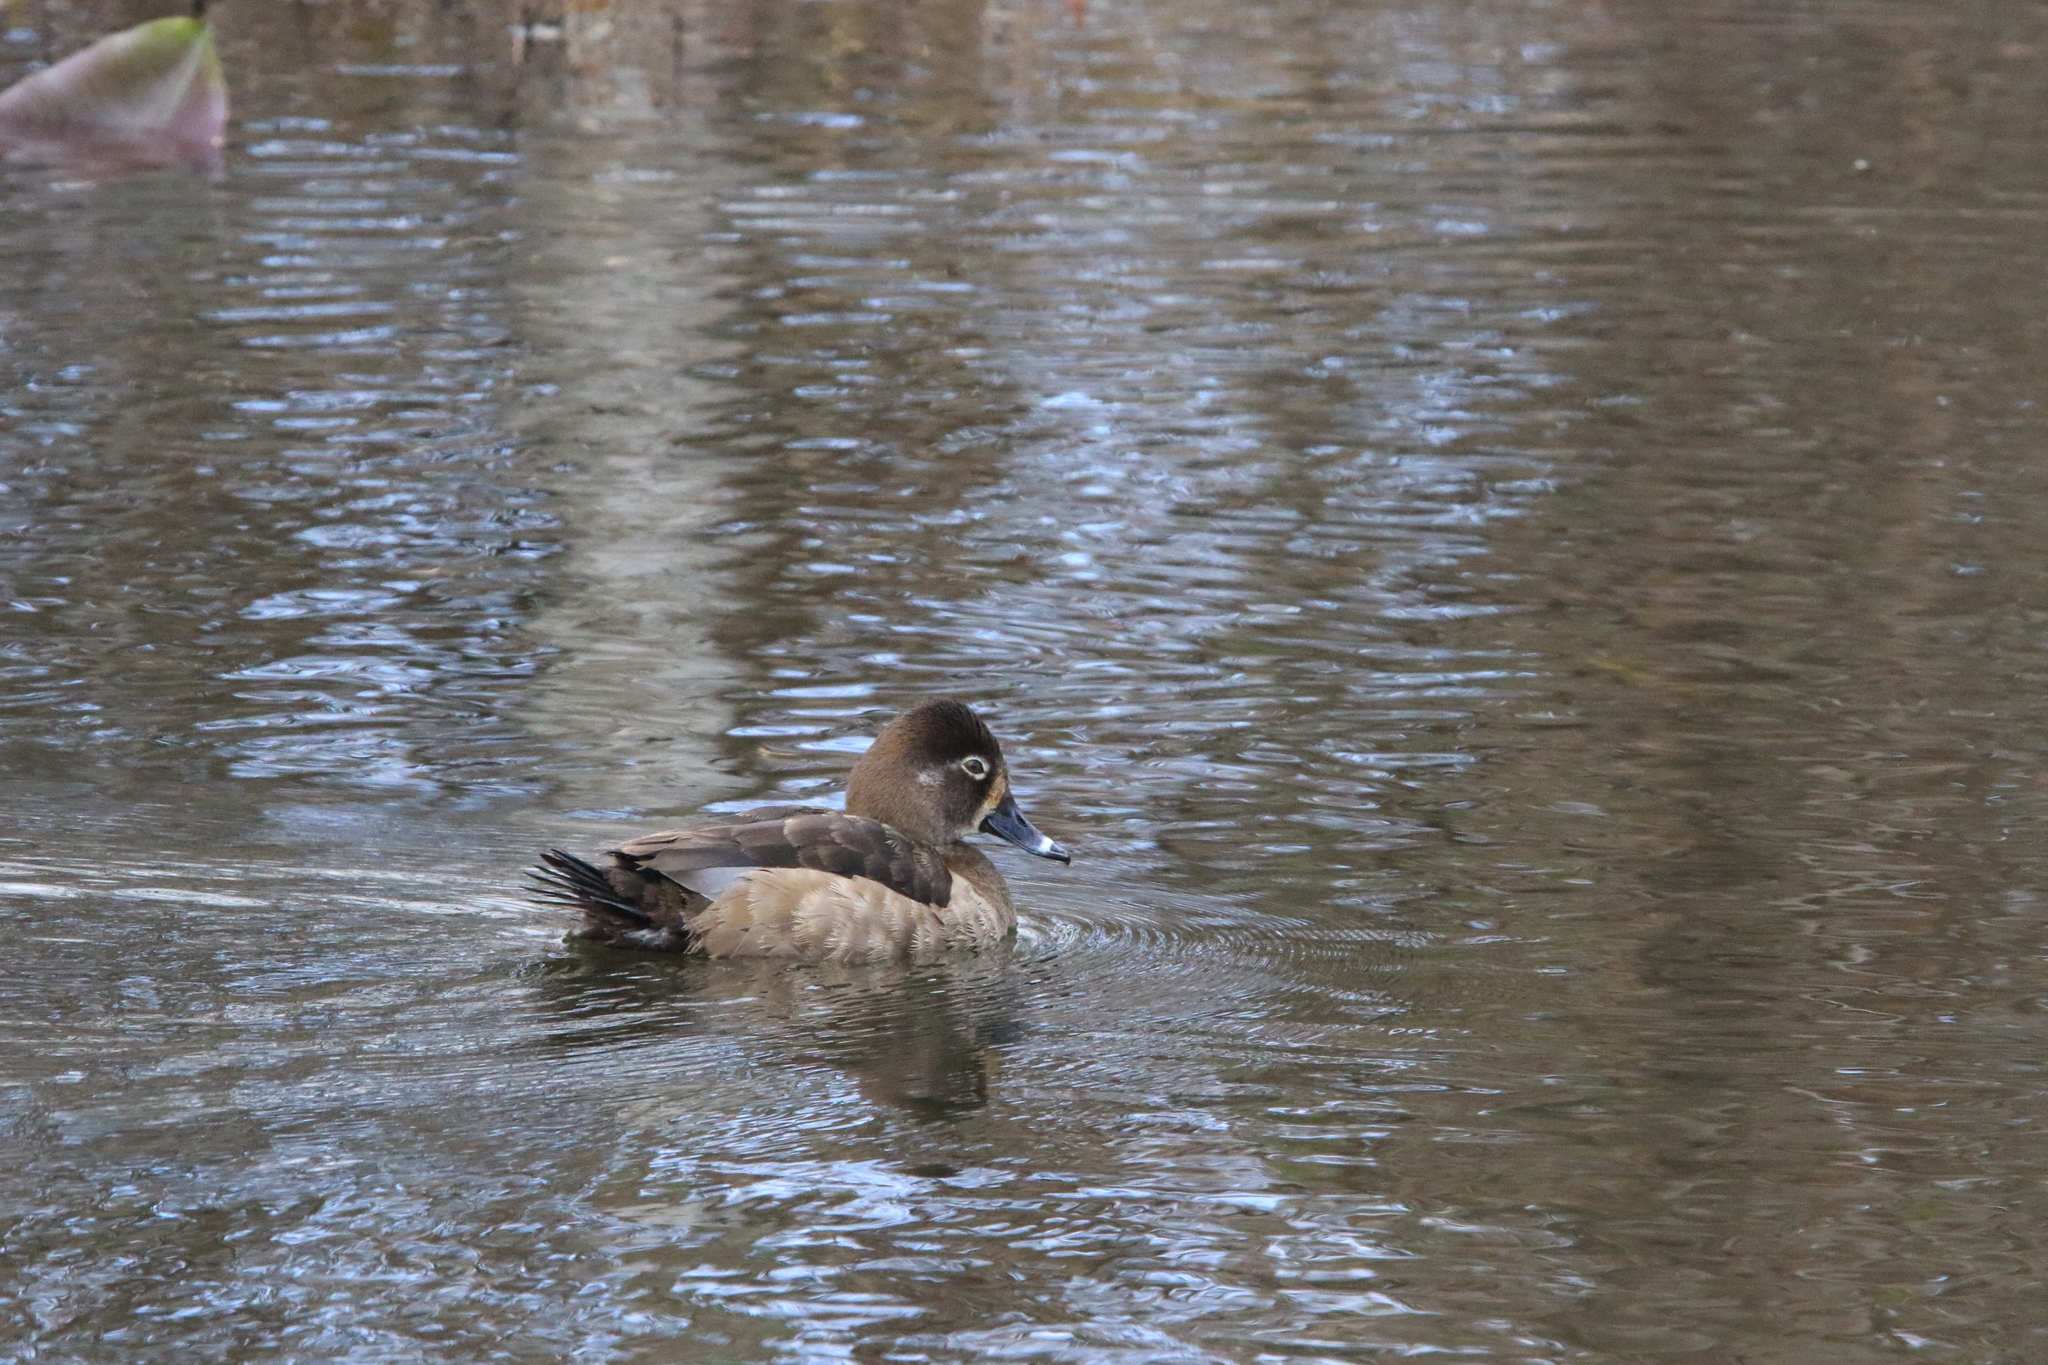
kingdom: Animalia
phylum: Chordata
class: Aves
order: Anseriformes
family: Anatidae
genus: Aythya
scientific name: Aythya collaris
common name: Ring-necked duck
